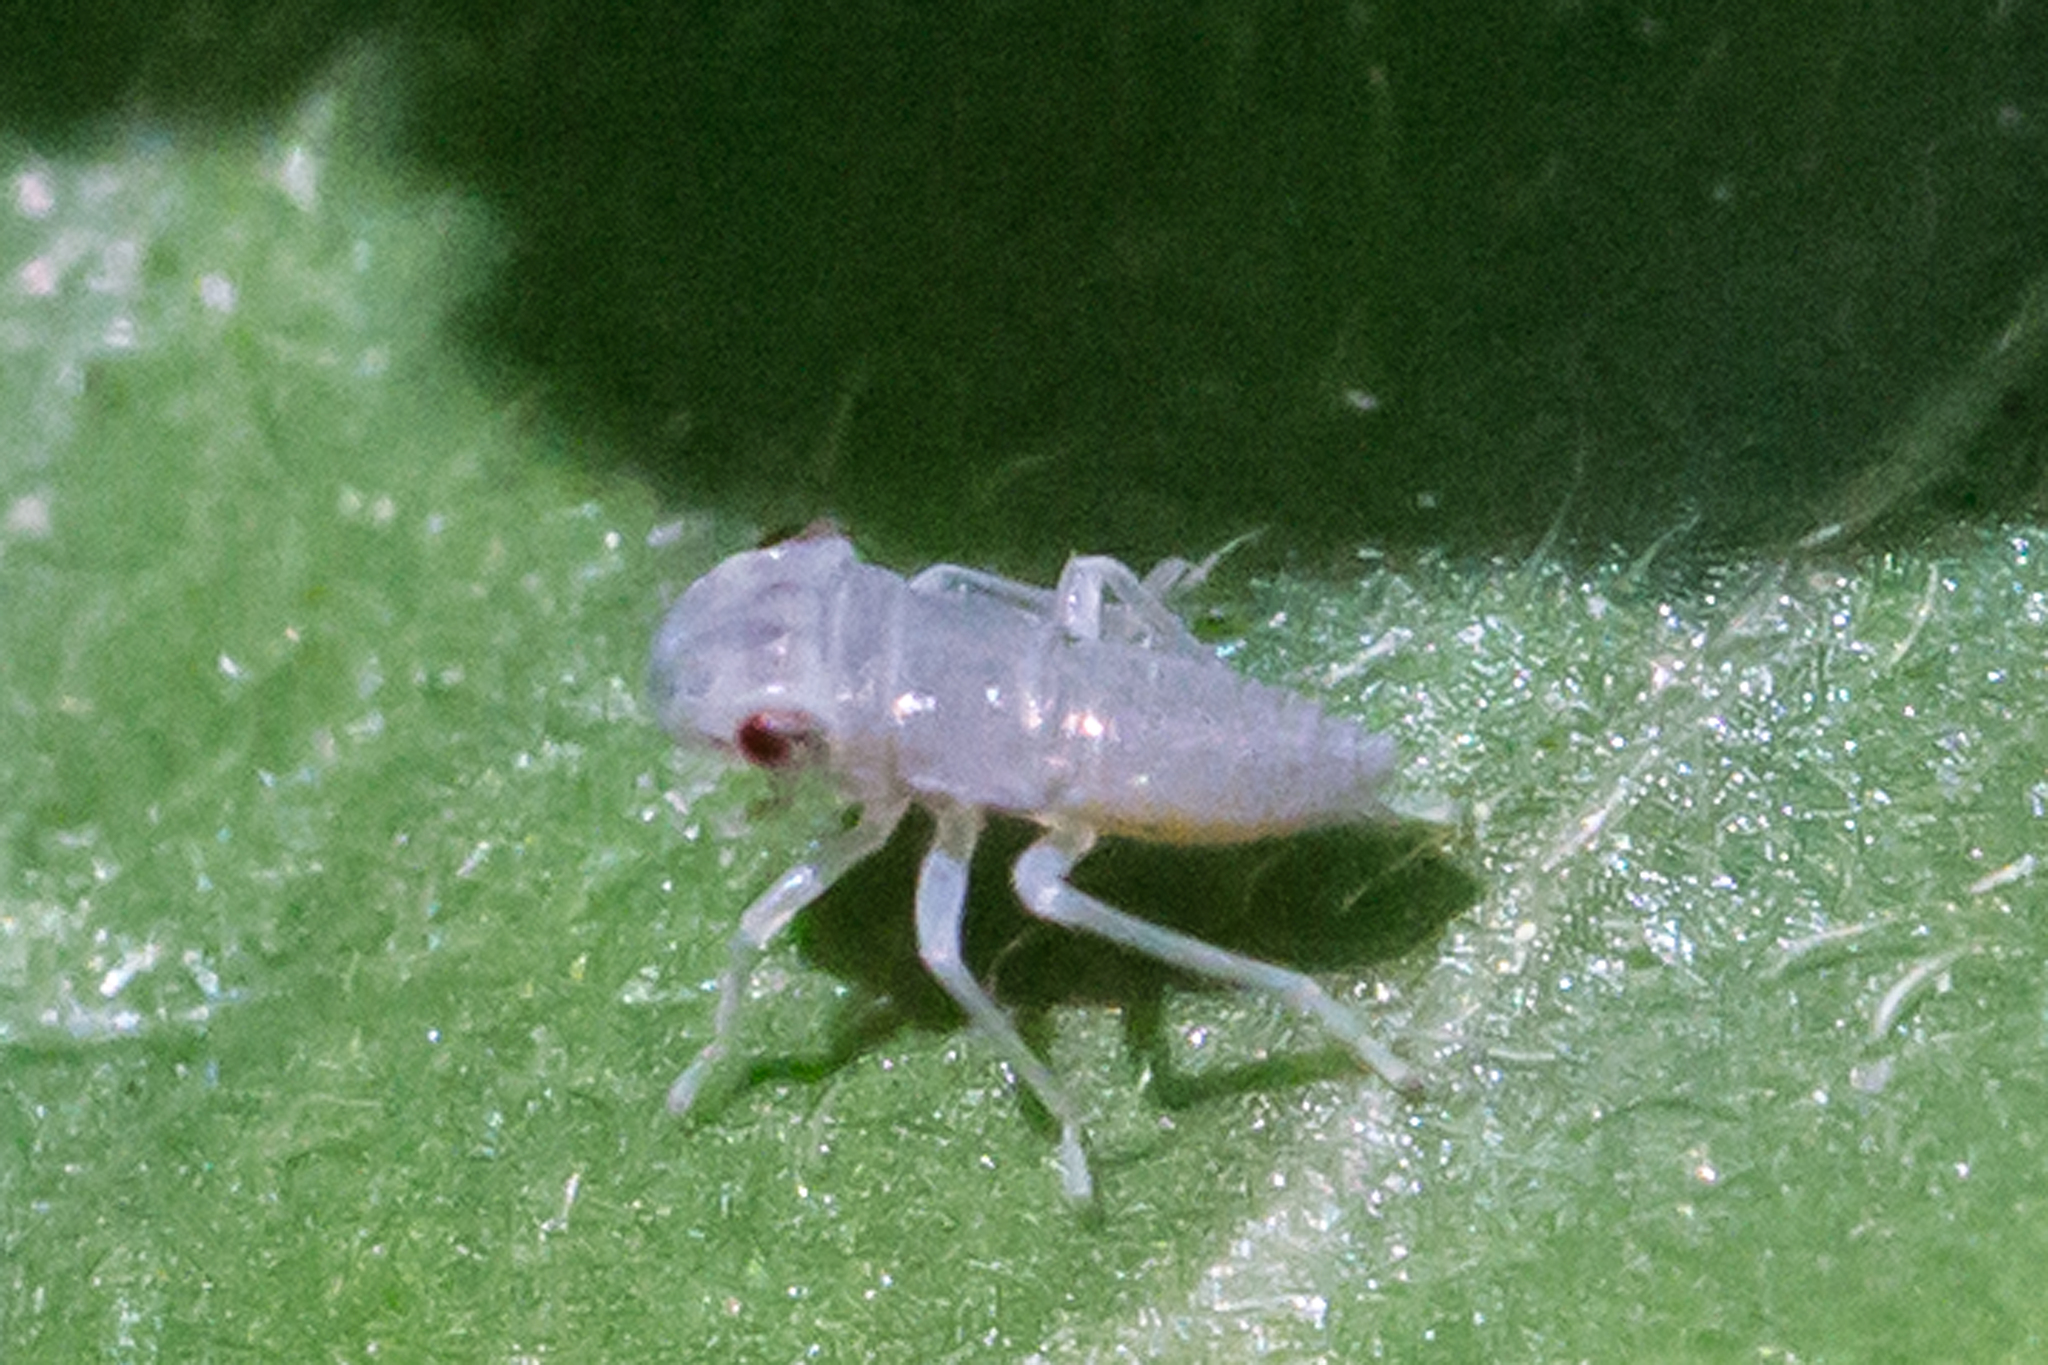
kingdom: Animalia
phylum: Arthropoda
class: Insecta
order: Hemiptera
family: Cicadellidae
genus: Oncometopia
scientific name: Oncometopia orbona
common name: Broad-headed sharpshooter
